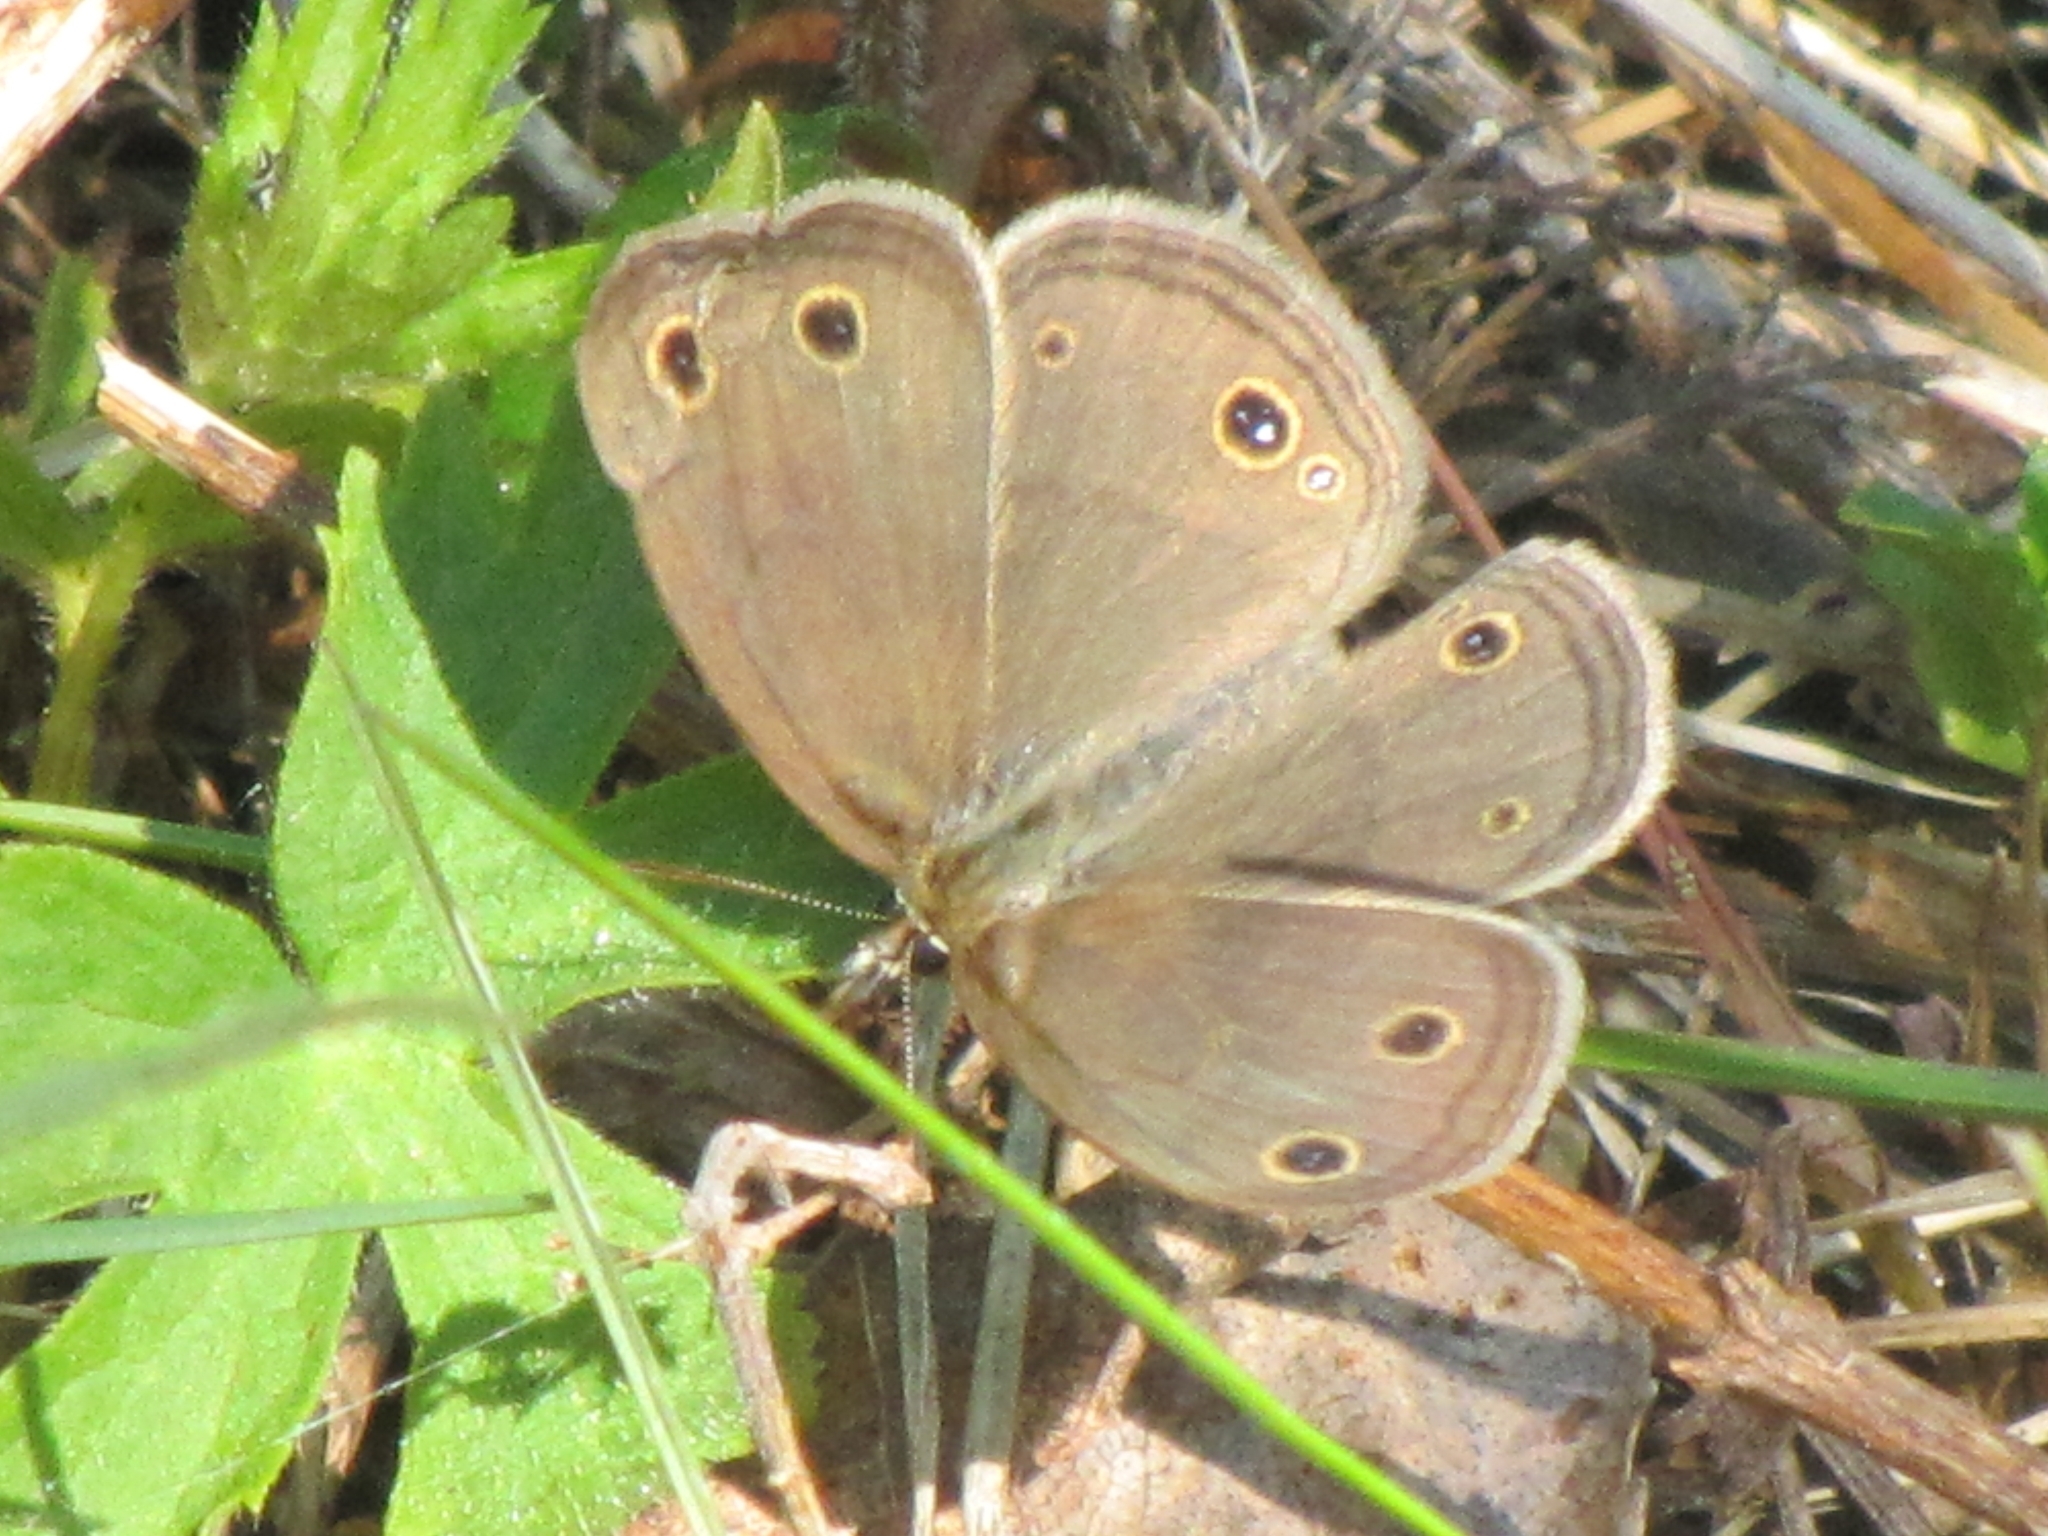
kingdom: Animalia
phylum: Arthropoda
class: Insecta
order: Lepidoptera
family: Nymphalidae
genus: Euptychia
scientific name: Euptychia cymela
